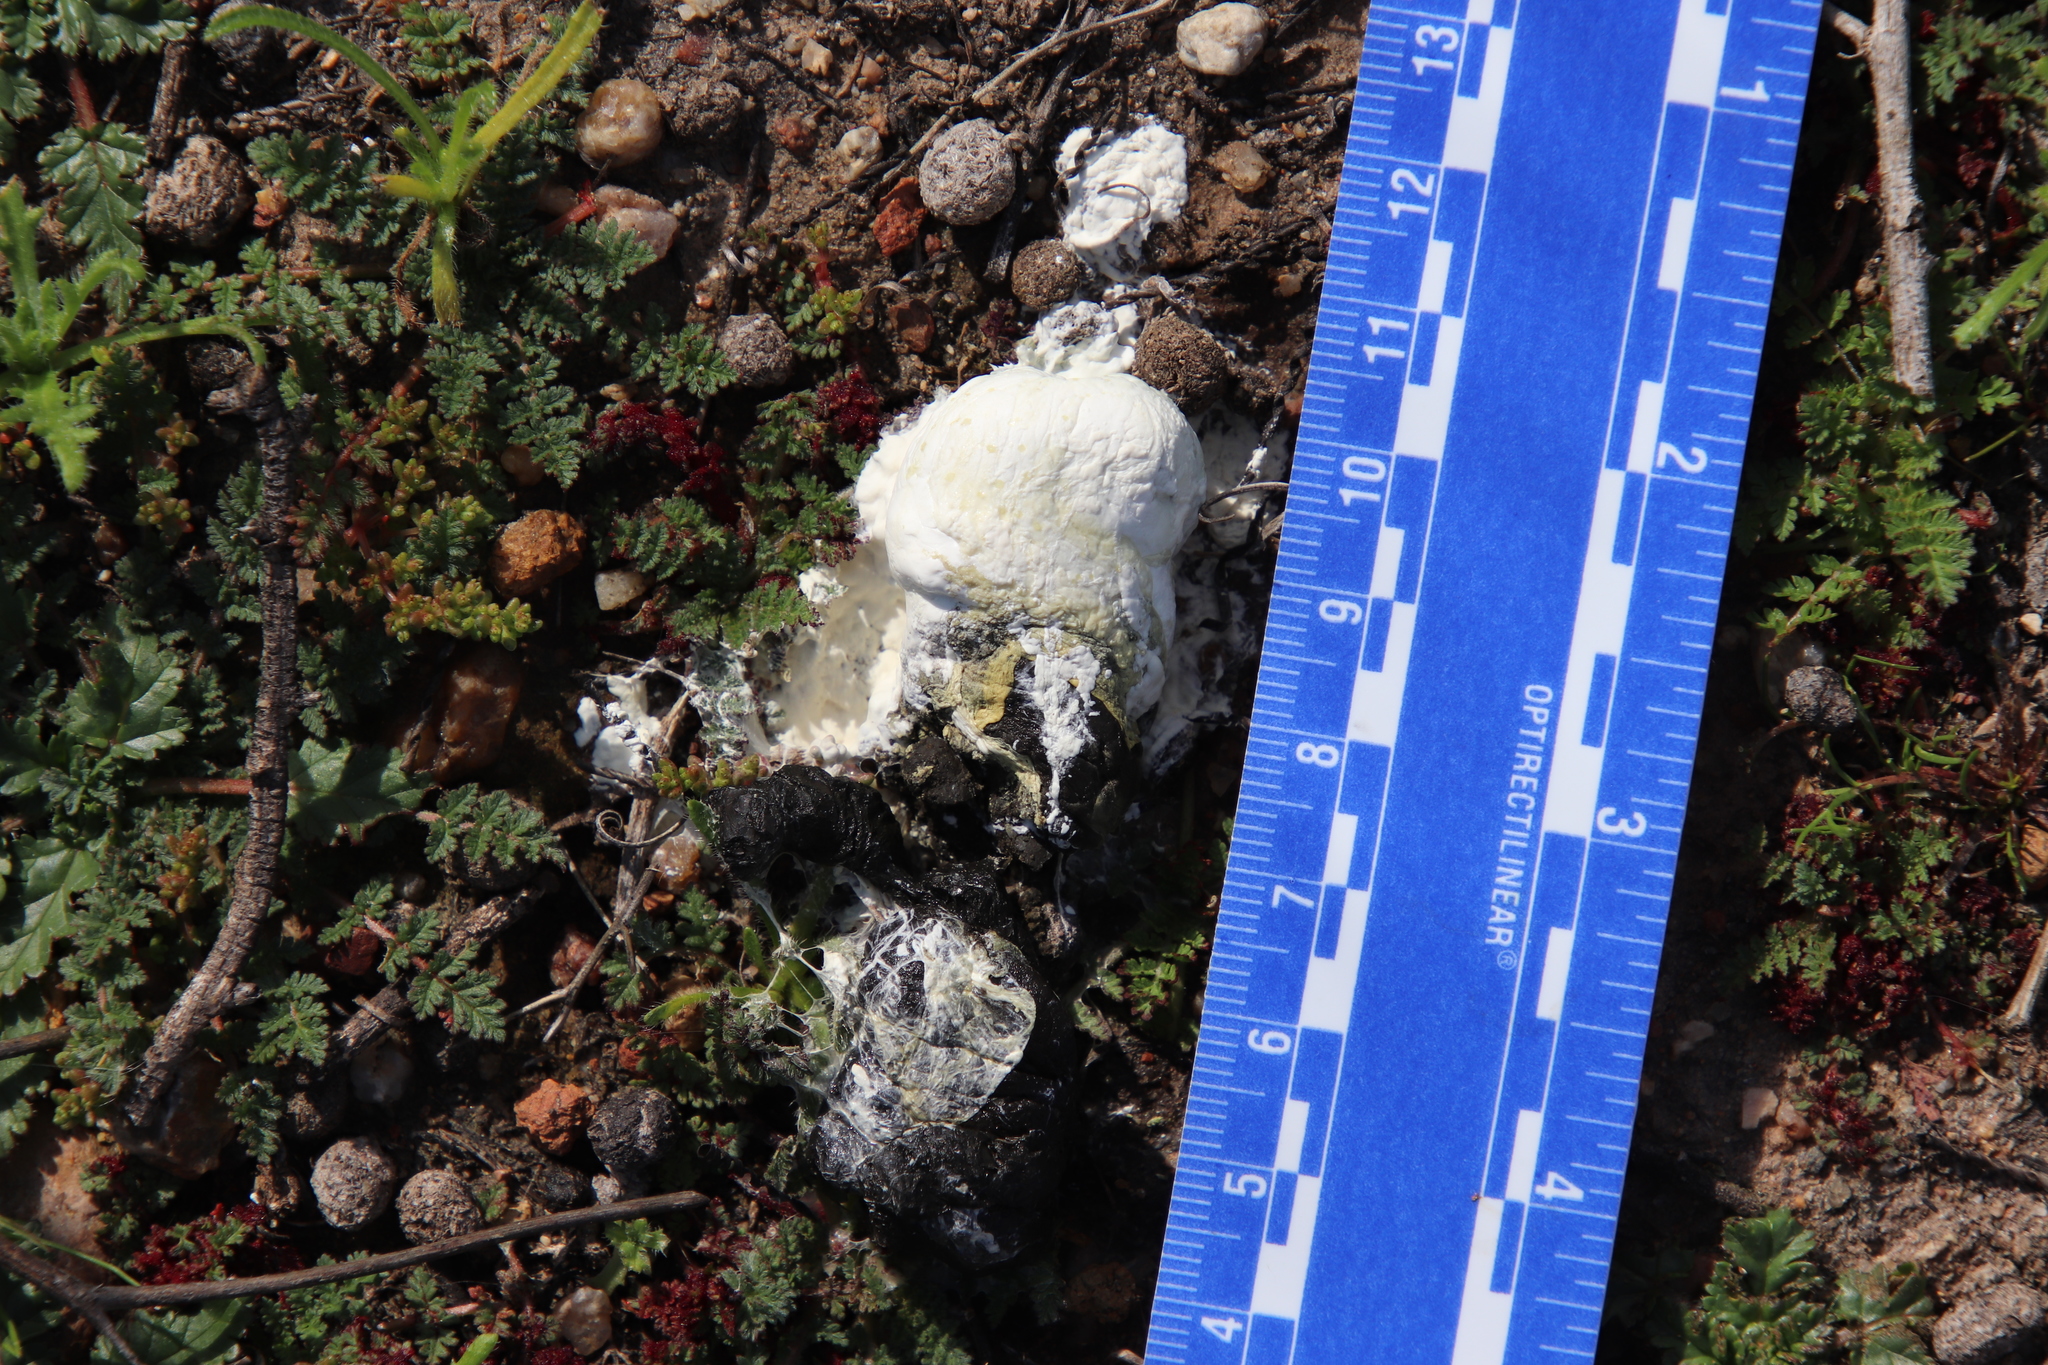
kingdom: Animalia
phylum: Chordata
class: Aves
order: Cuculiformes
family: Cuculidae
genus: Geococcyx
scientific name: Geococcyx californianus
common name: Greater roadrunner
